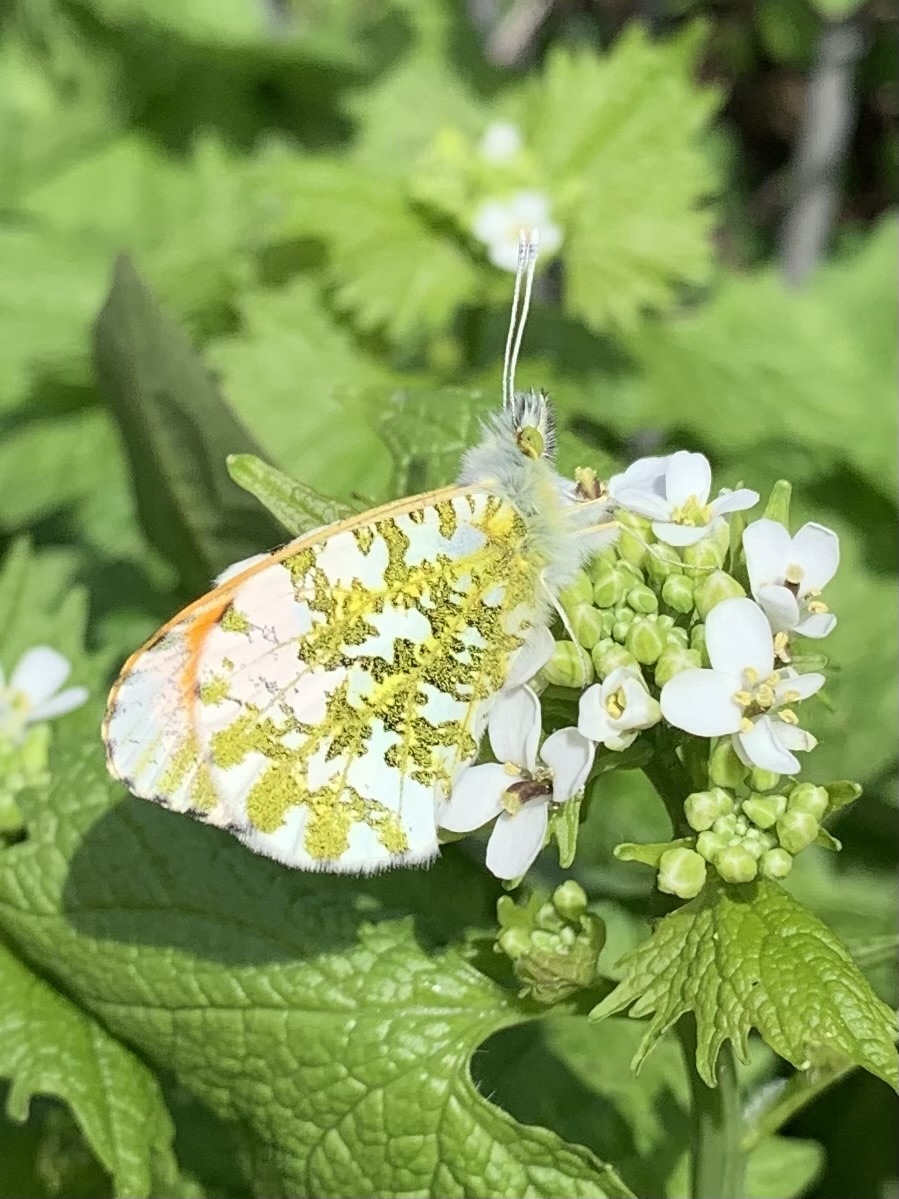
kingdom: Animalia
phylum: Arthropoda
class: Insecta
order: Lepidoptera
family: Pieridae
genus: Anthocharis
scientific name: Anthocharis cardamines
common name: Orange-tip
